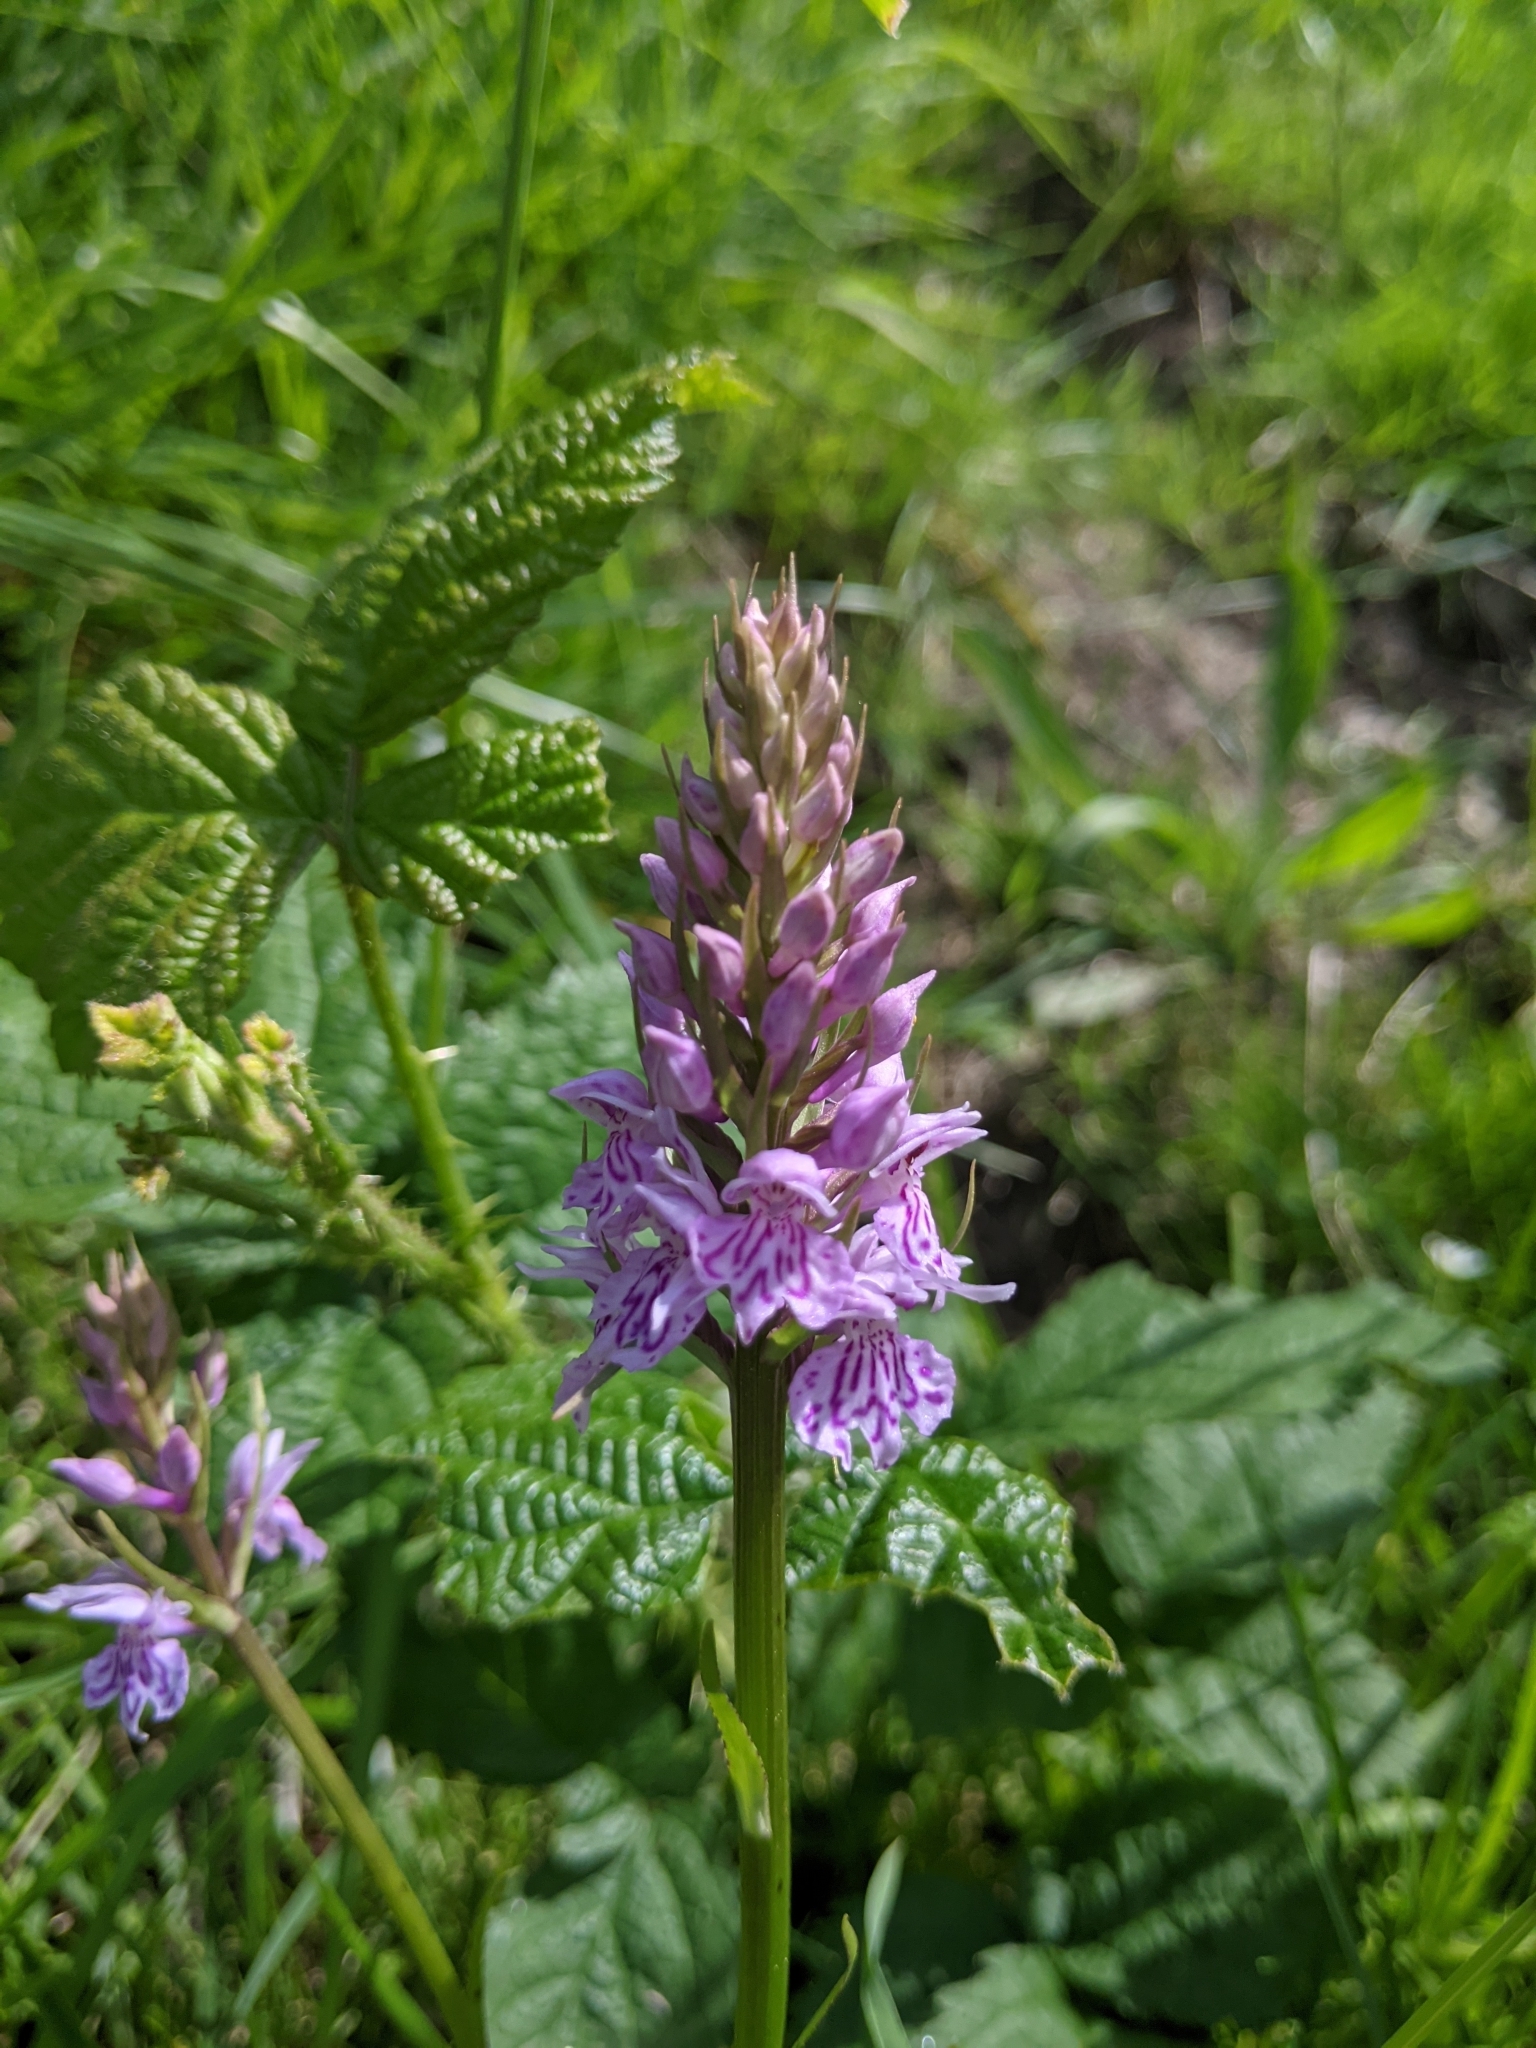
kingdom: Plantae
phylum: Tracheophyta
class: Liliopsida
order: Asparagales
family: Orchidaceae
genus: Dactylorhiza
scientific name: Dactylorhiza maculata
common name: Heath spotted-orchid
